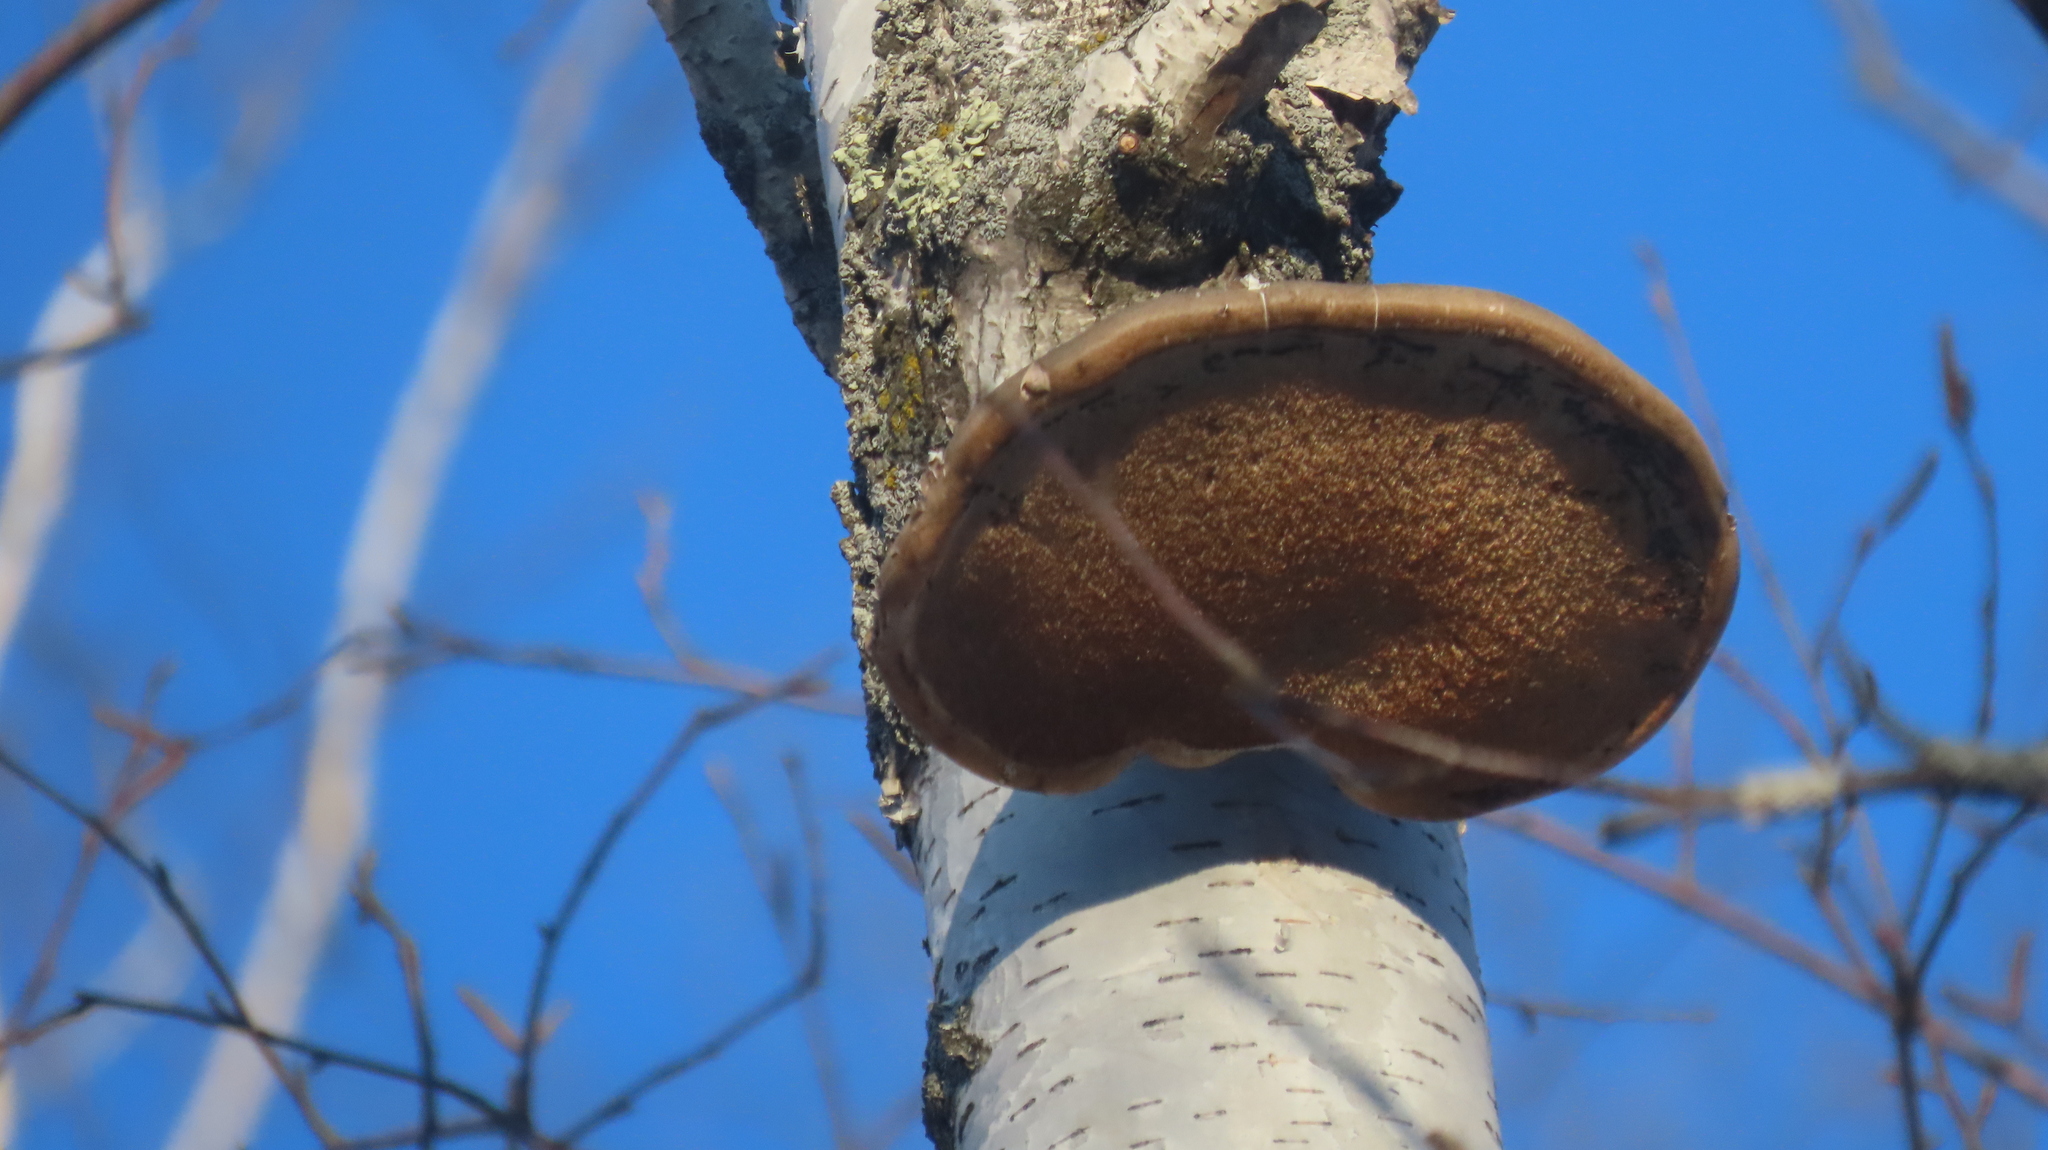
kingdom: Fungi
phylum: Basidiomycota
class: Agaricomycetes
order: Polyporales
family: Fomitopsidaceae
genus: Fomitopsis
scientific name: Fomitopsis betulina
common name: Birch polypore
